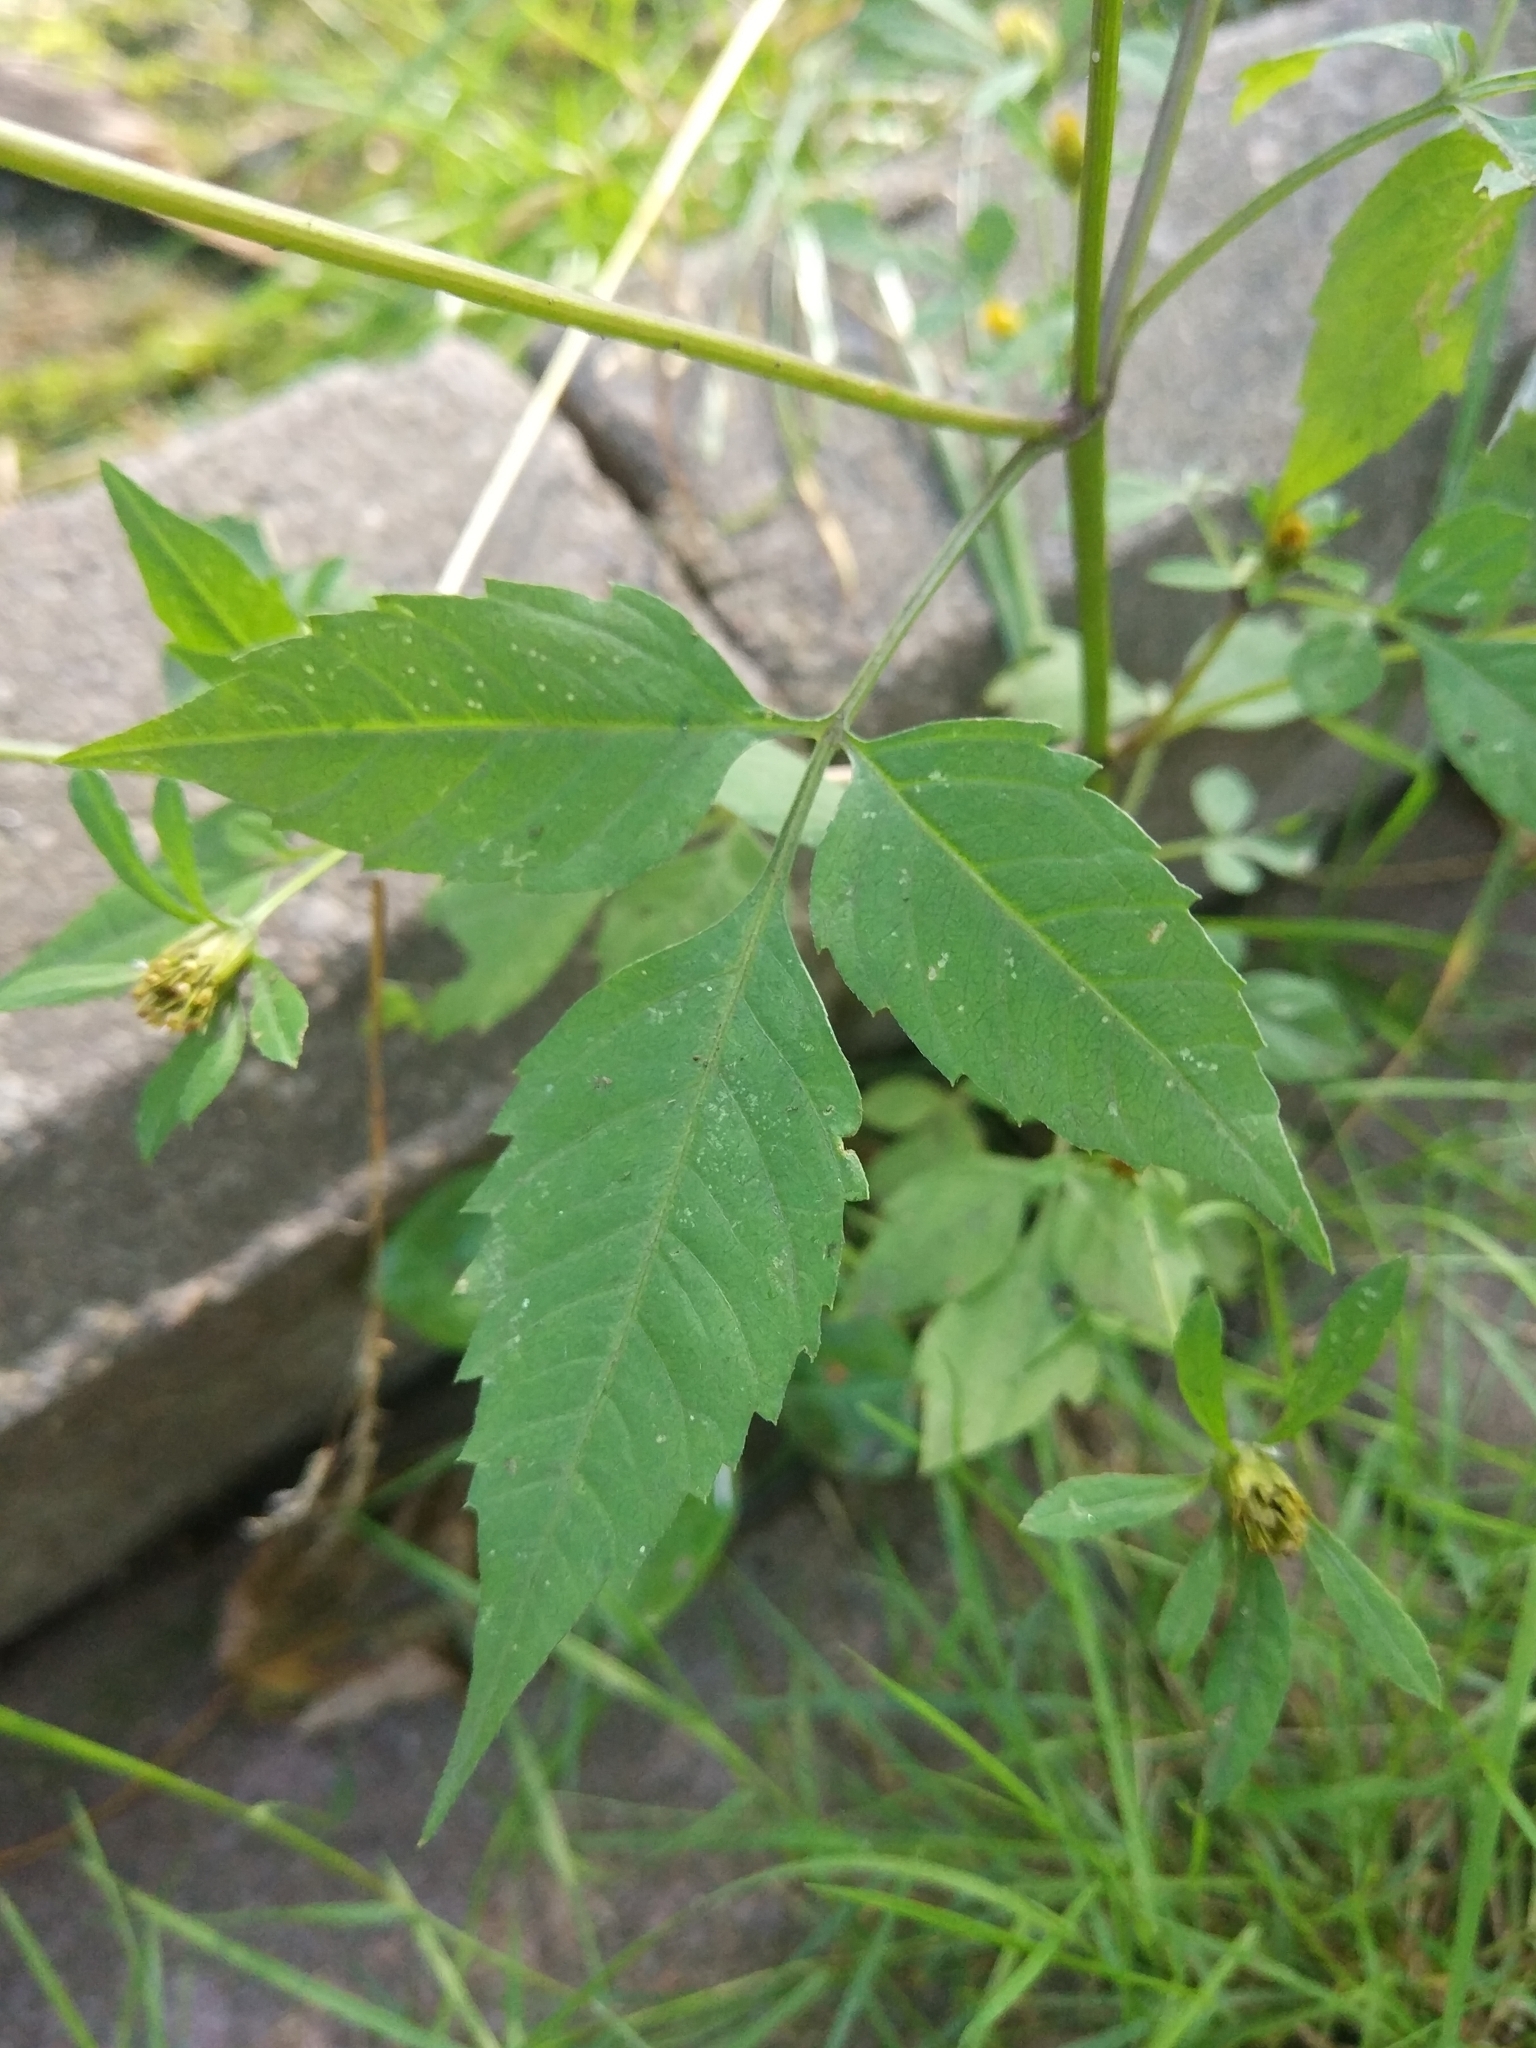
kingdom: Plantae
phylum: Tracheophyta
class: Magnoliopsida
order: Asterales
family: Asteraceae
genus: Bidens
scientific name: Bidens frondosa
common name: Beggarticks
